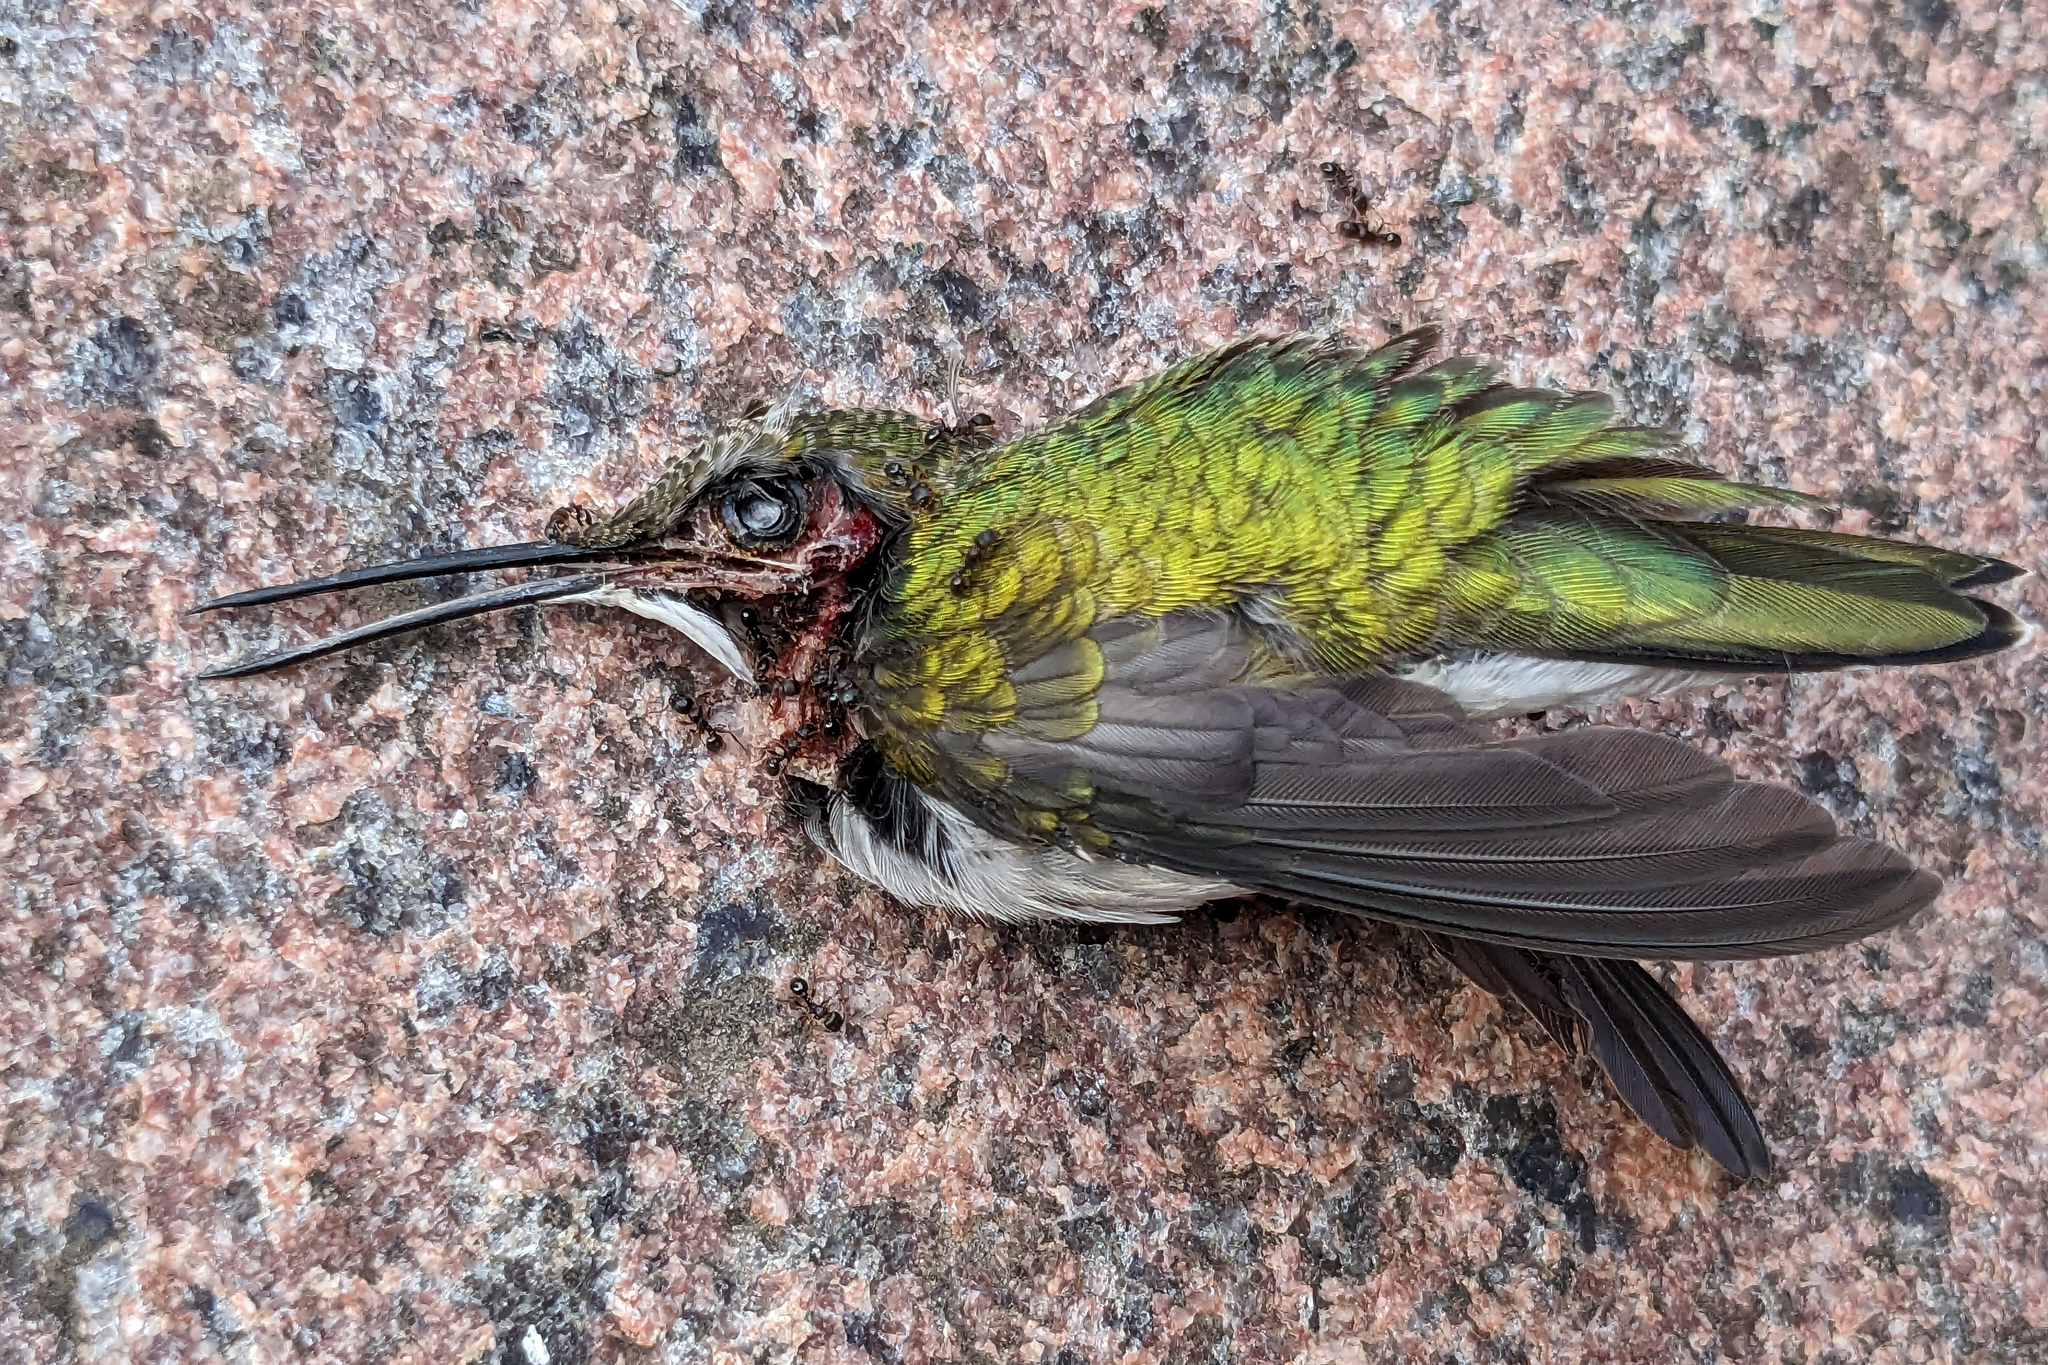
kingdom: Animalia
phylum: Chordata
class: Aves
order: Apodiformes
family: Trochilidae
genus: Archilochus
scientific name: Archilochus colubris
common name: Ruby-throated hummingbird
